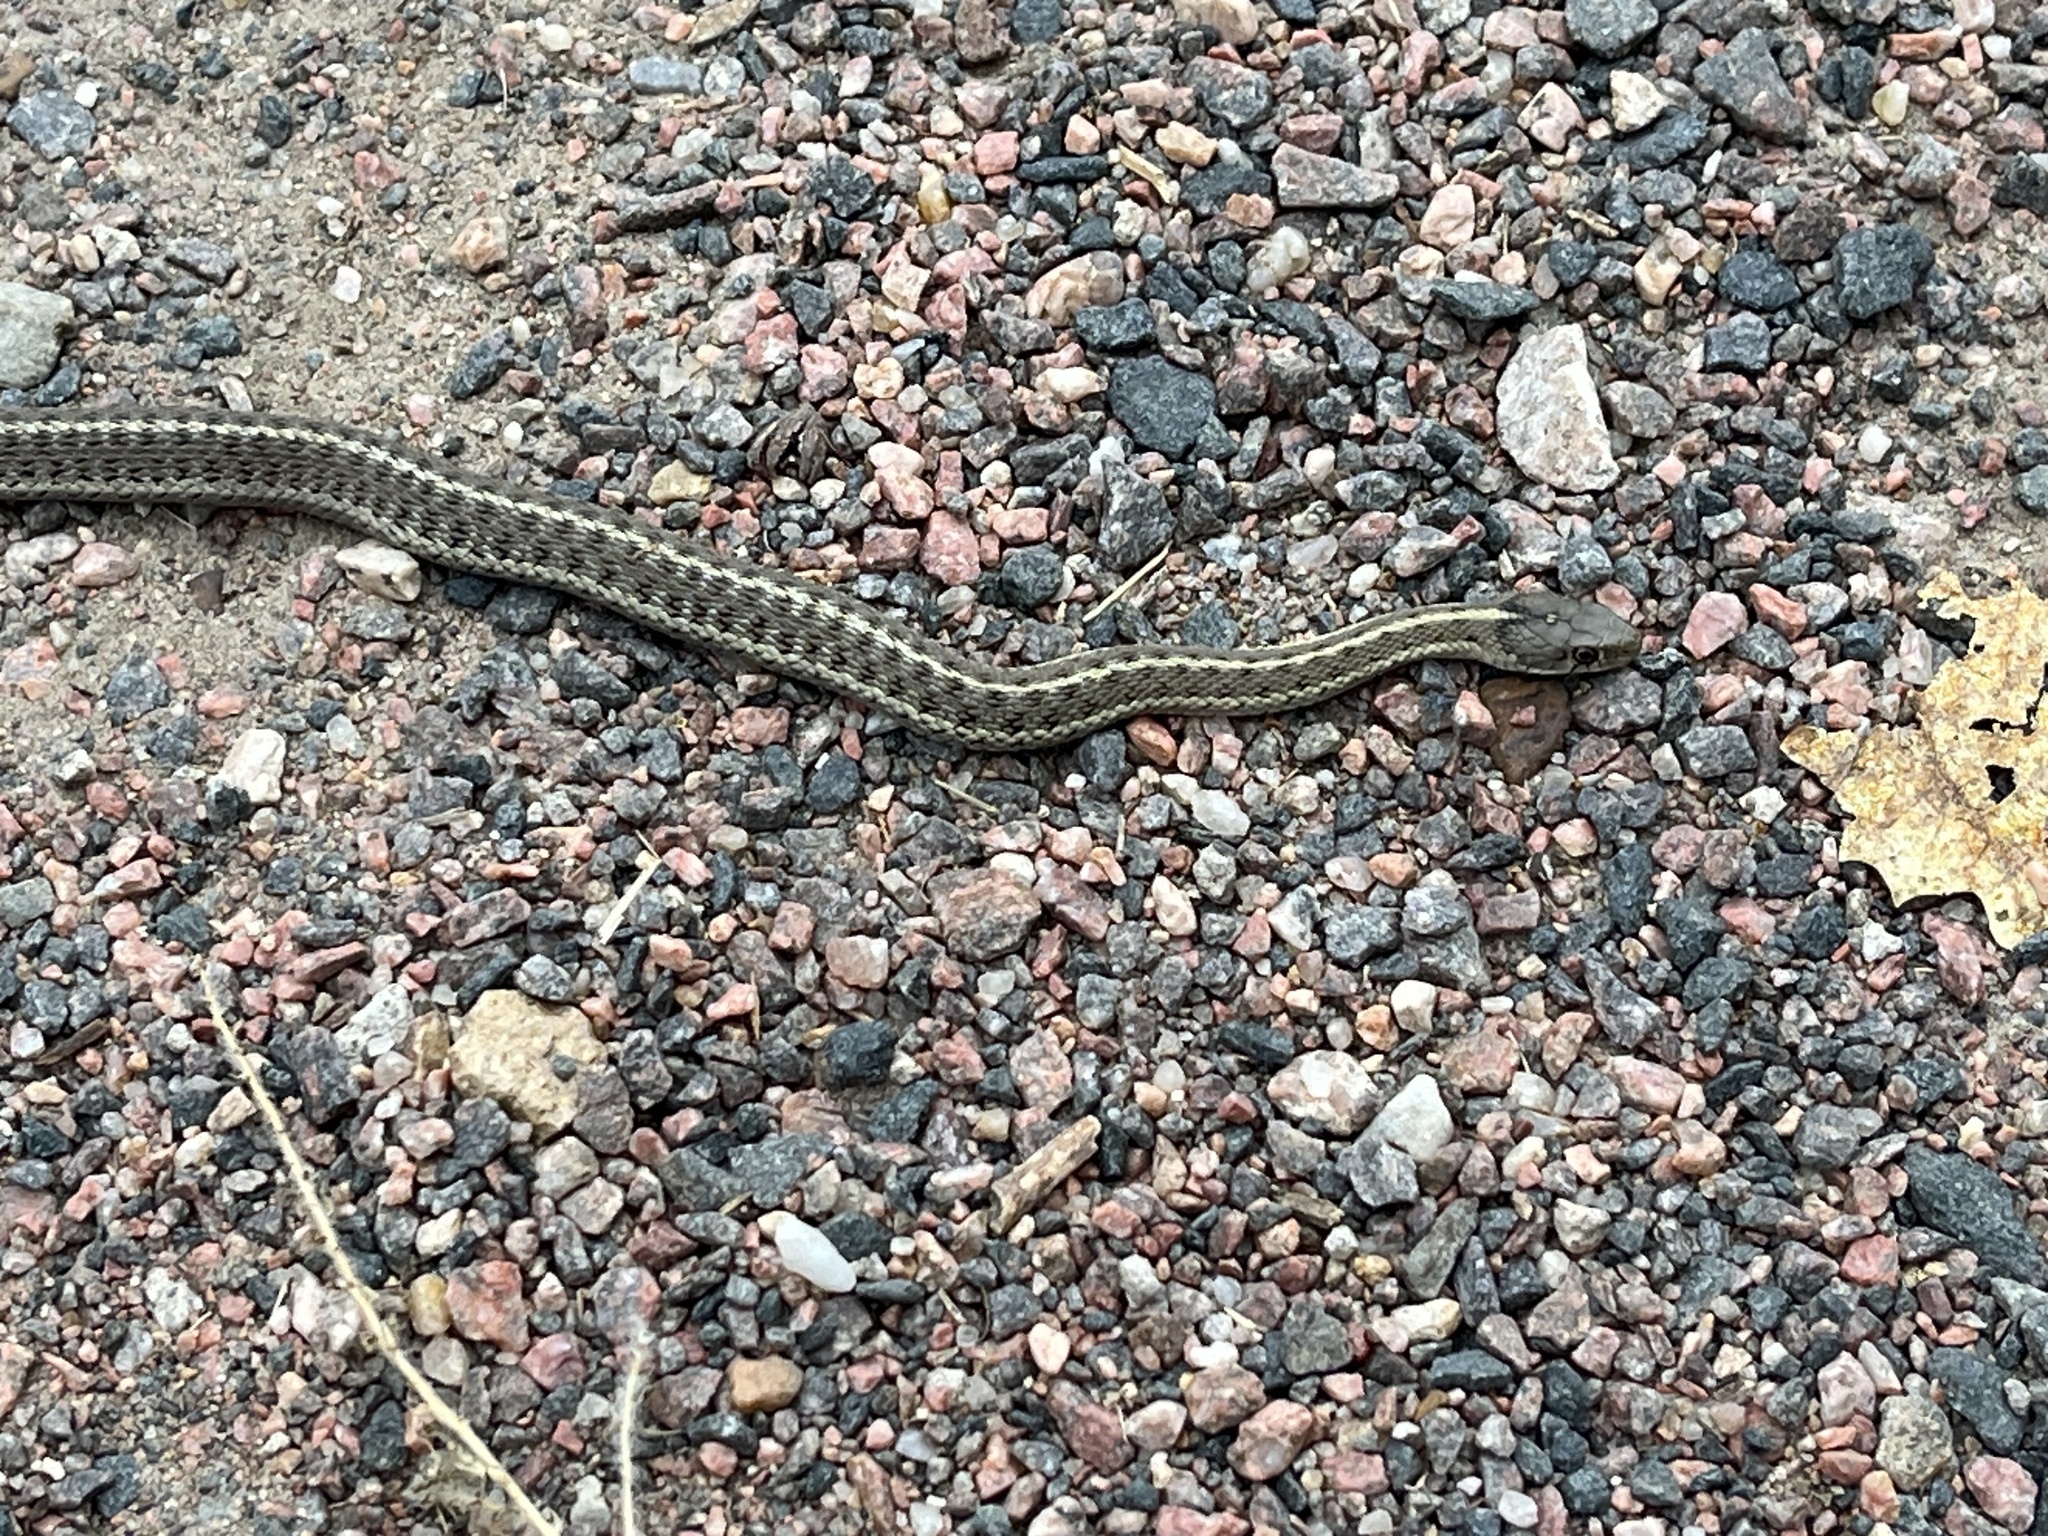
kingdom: Animalia
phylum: Chordata
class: Squamata
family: Colubridae
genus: Thamnophis
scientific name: Thamnophis elegans
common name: Western terrestrial garter snake
